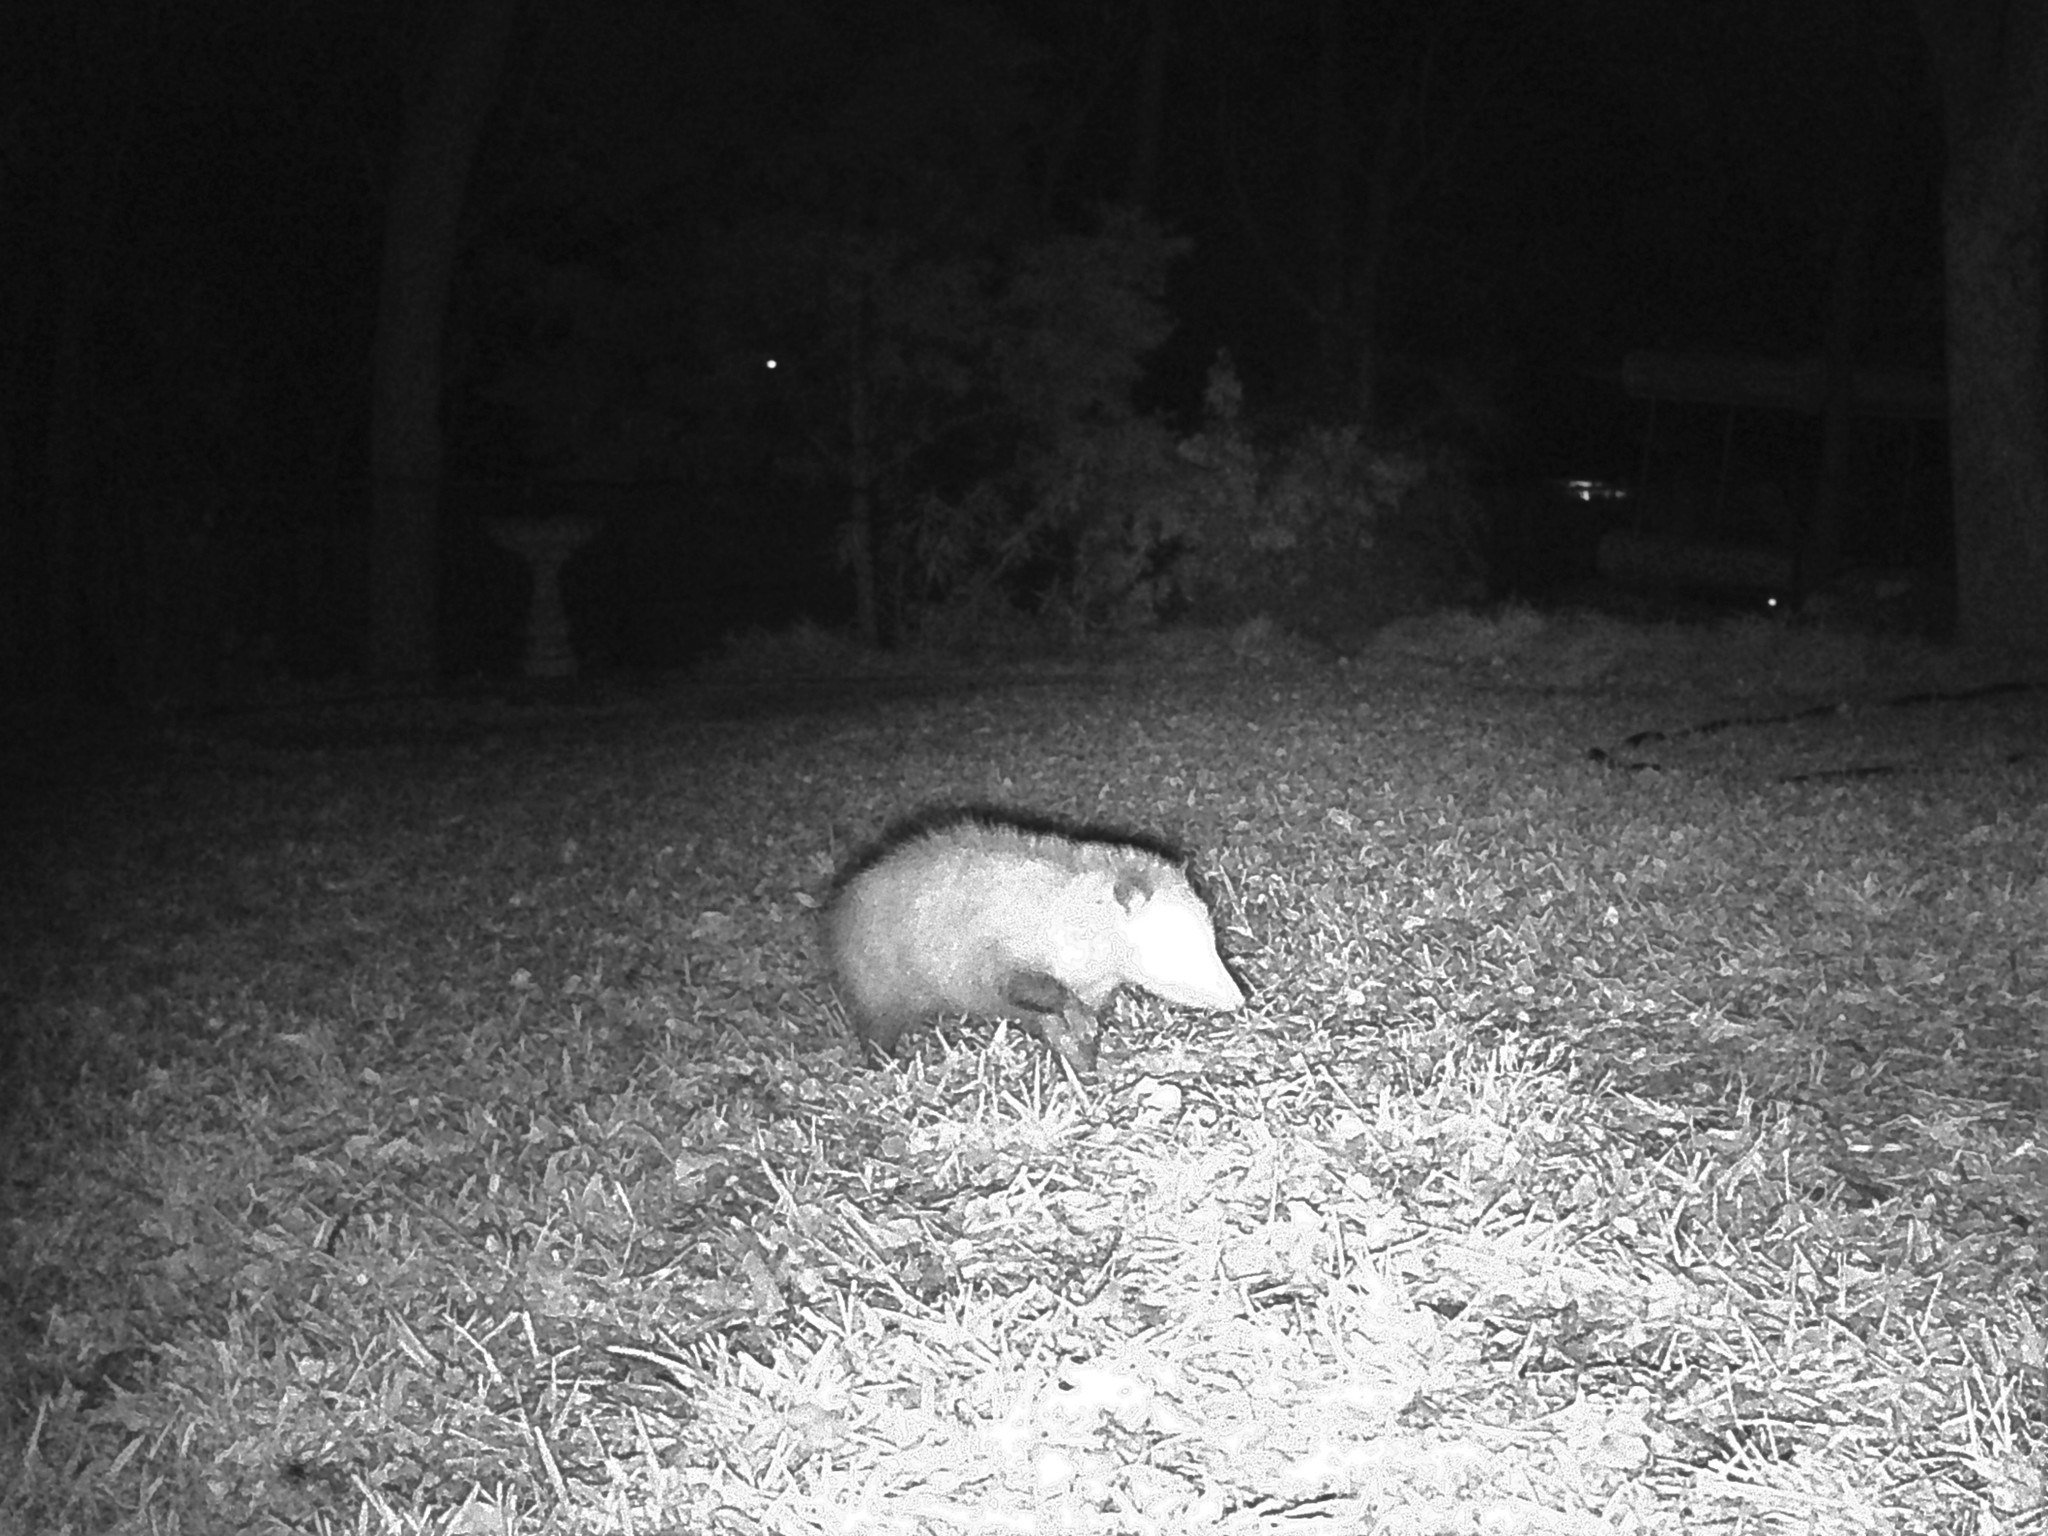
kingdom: Animalia
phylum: Chordata
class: Mammalia
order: Didelphimorphia
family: Didelphidae
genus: Didelphis
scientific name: Didelphis virginiana
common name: Virginia opossum
